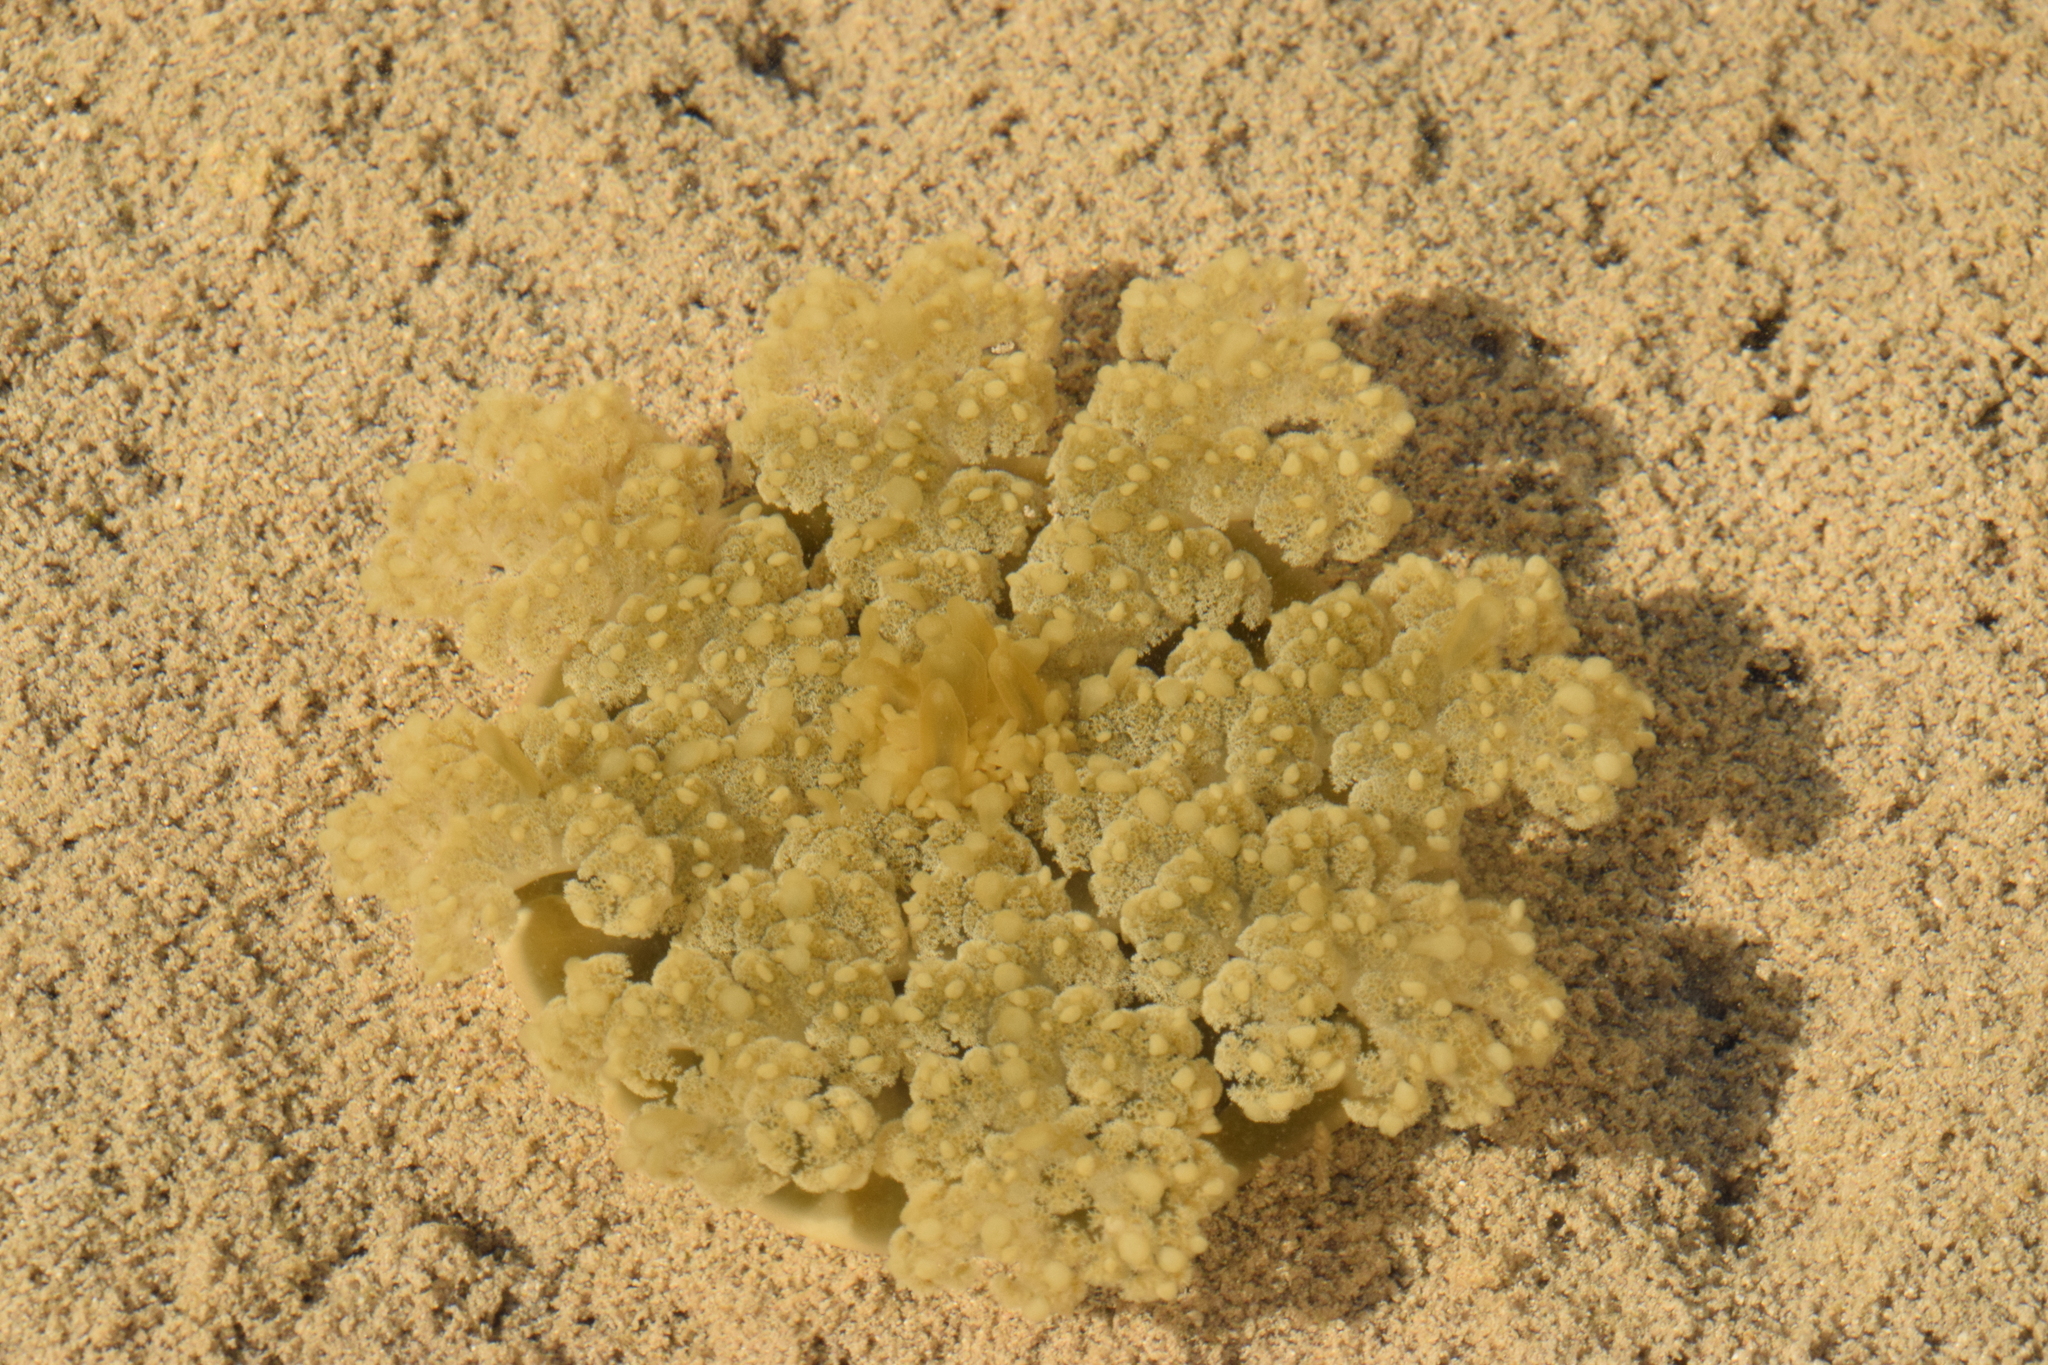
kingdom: Animalia
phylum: Cnidaria
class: Scyphozoa
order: Rhizostomeae
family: Cassiopeidae
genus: Cassiopea
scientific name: Cassiopea andromeda
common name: Upside-down jellyfish
